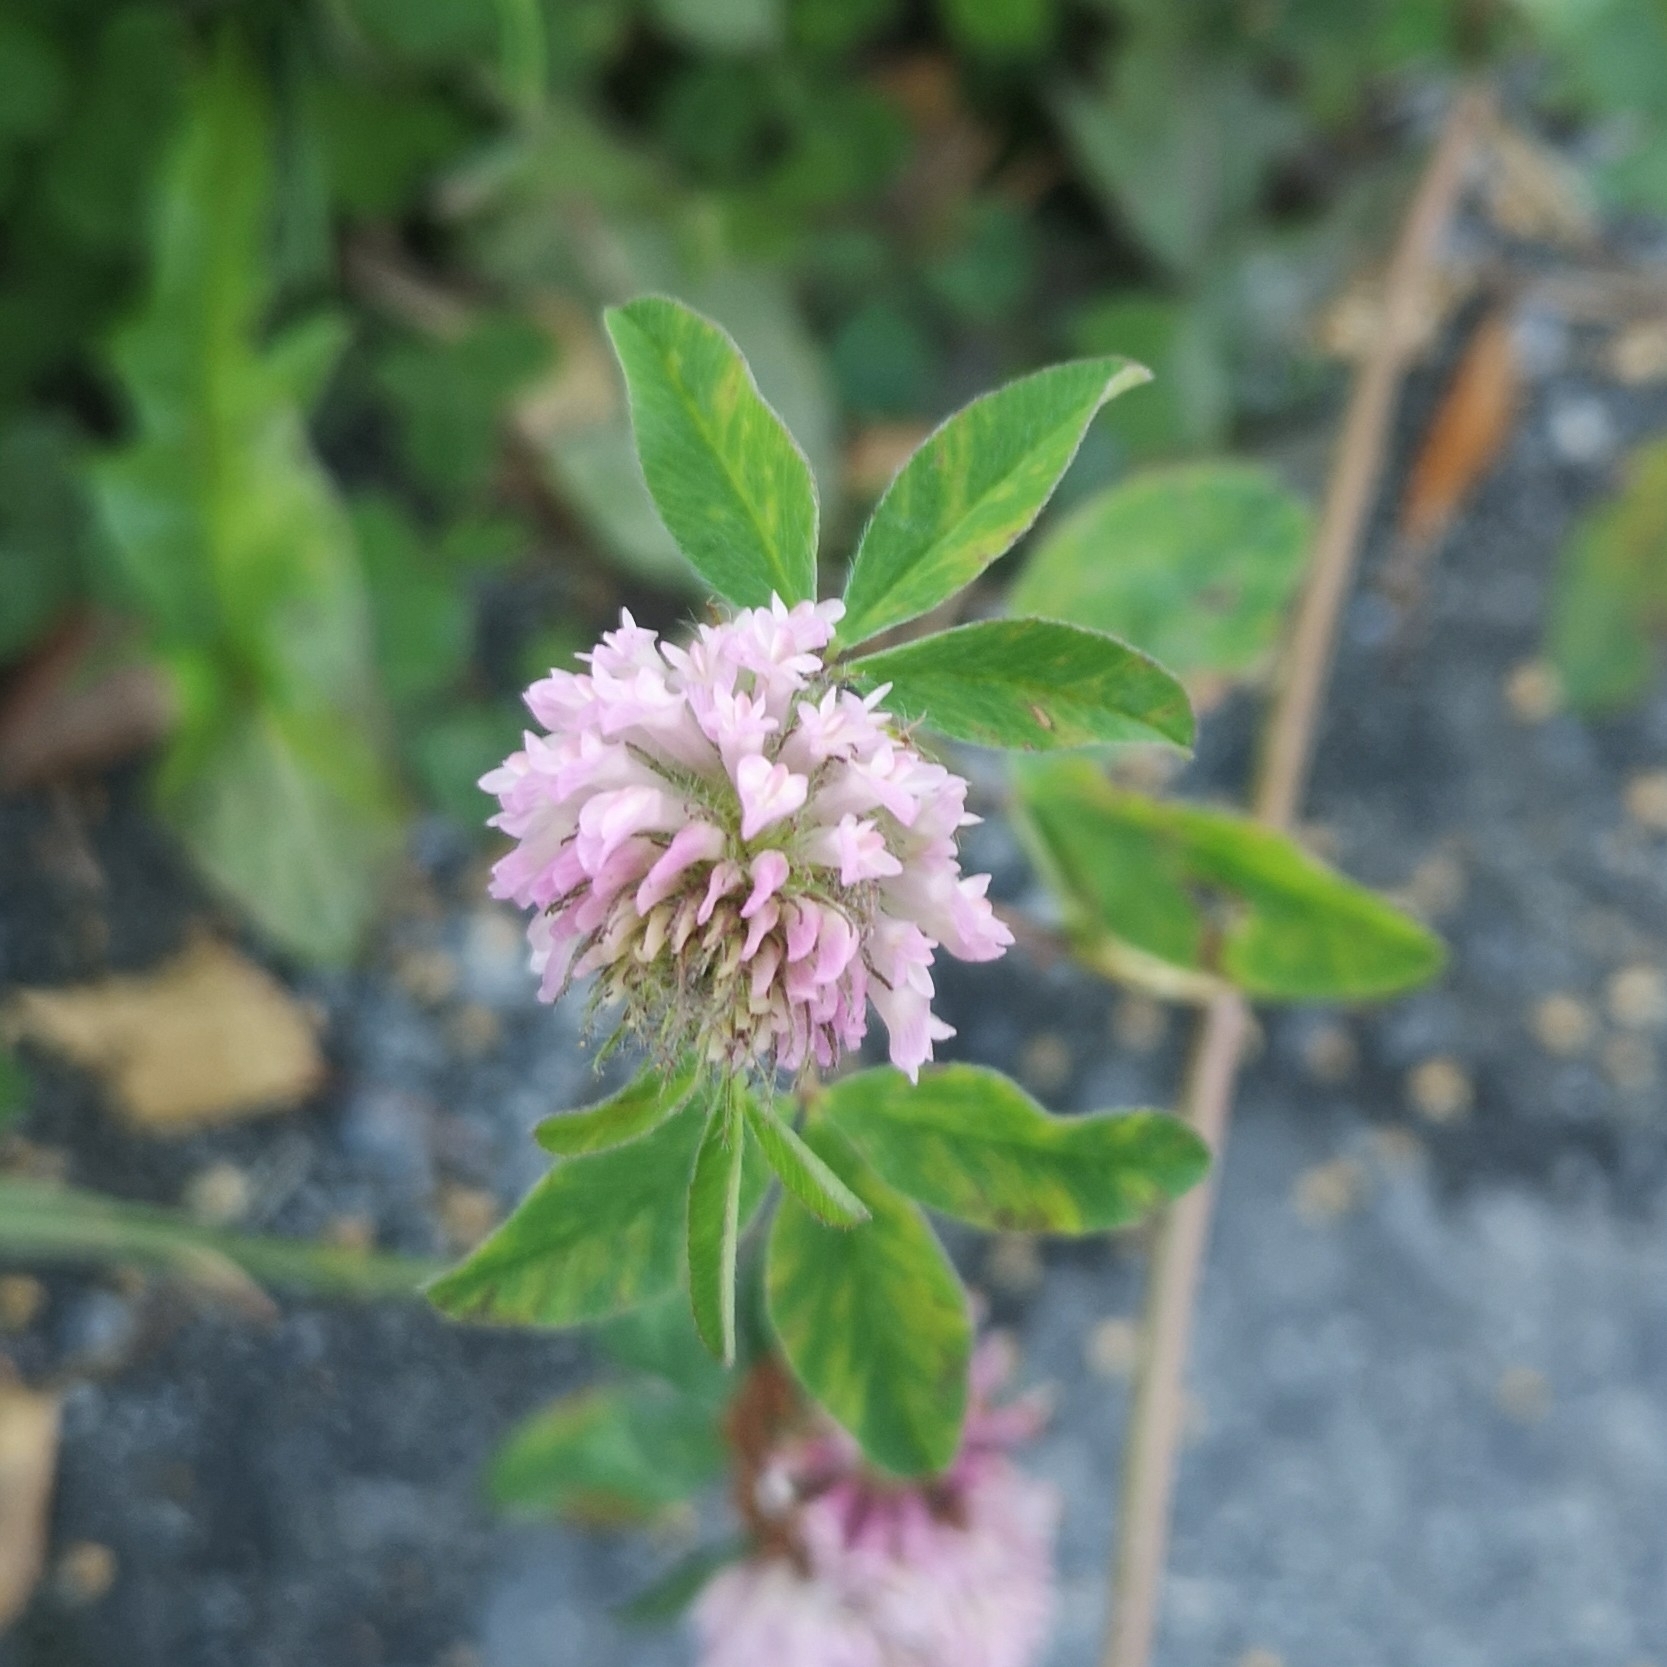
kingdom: Plantae
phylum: Tracheophyta
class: Magnoliopsida
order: Fabales
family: Fabaceae
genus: Trifolium
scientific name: Trifolium pratense
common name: Red clover
